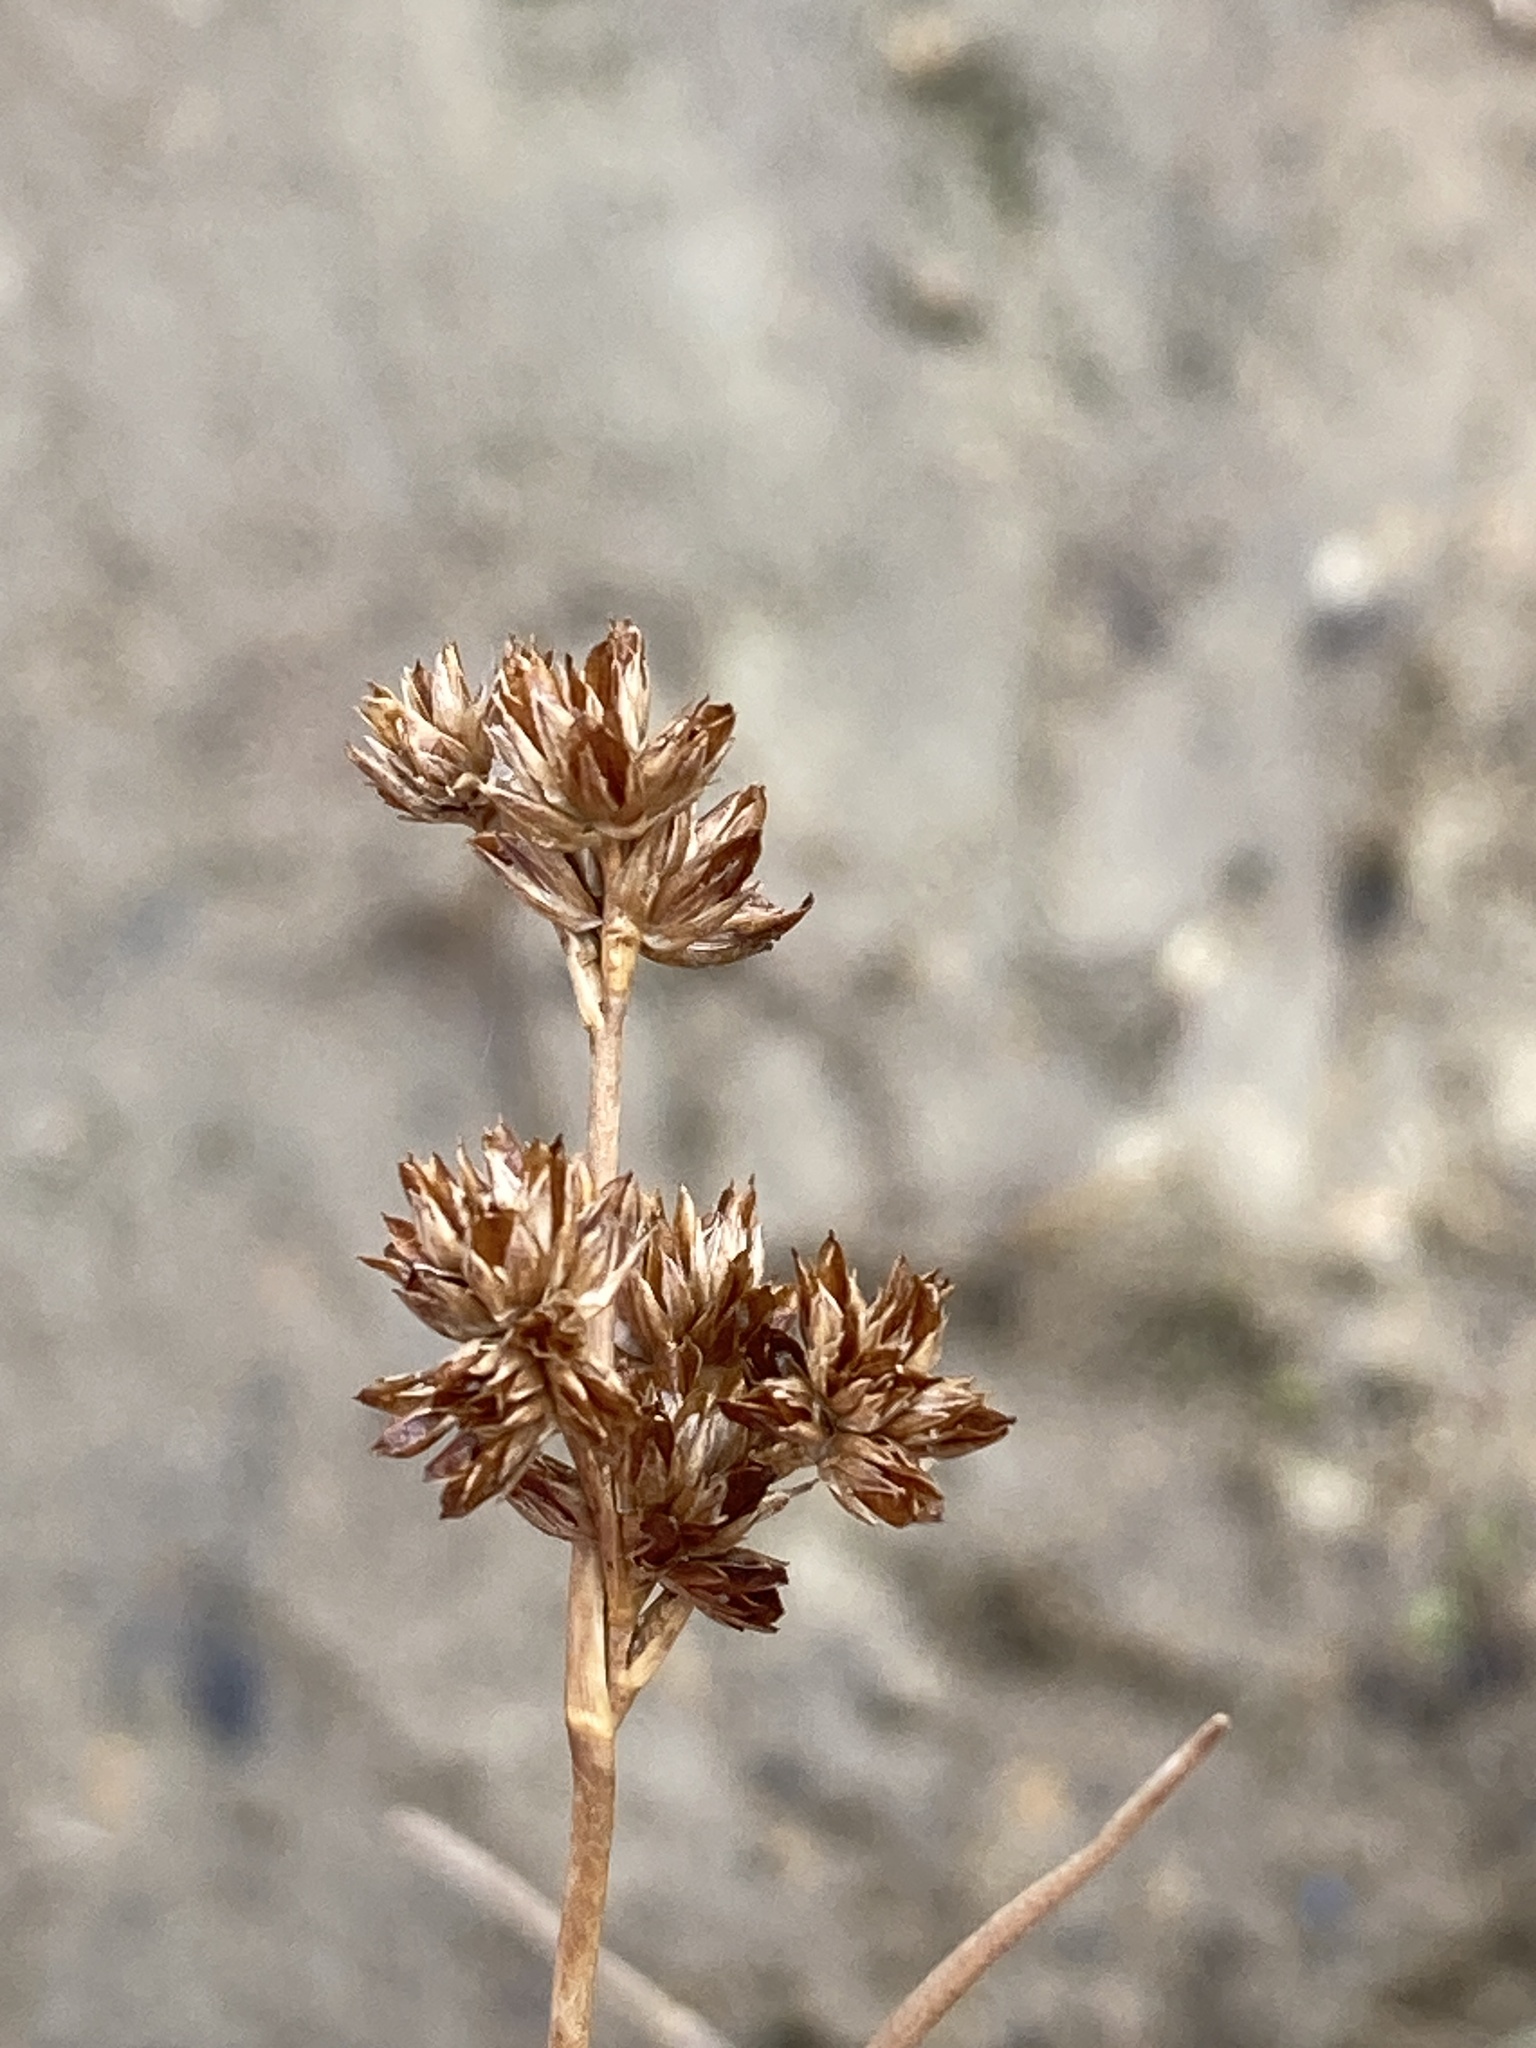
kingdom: Plantae
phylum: Tracheophyta
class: Liliopsida
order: Poales
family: Juncaceae
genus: Juncus
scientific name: Juncus articulatus
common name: Jointed rush
